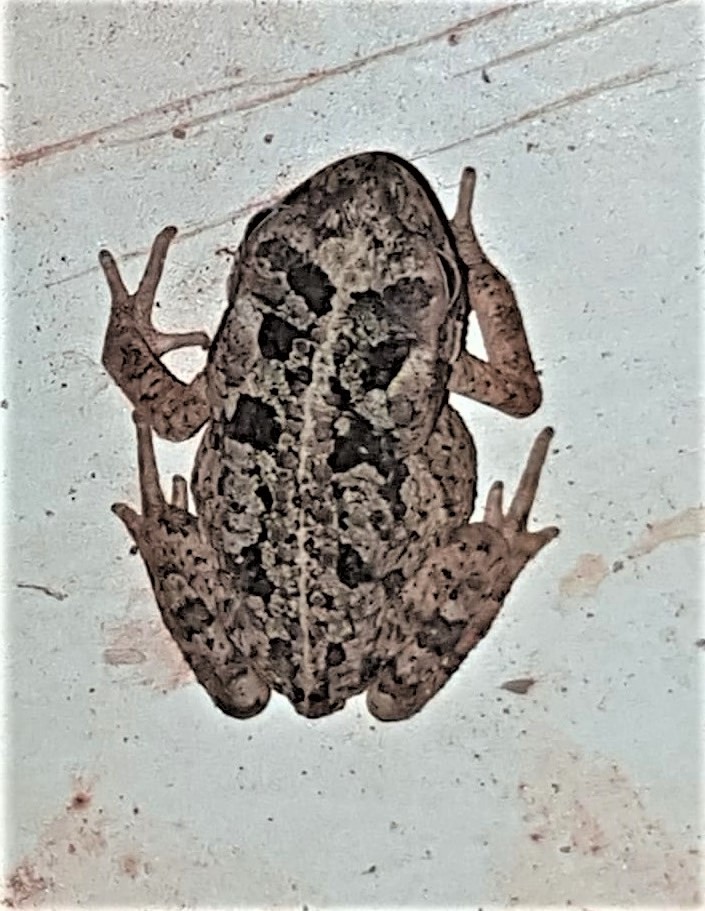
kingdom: Animalia
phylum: Chordata
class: Amphibia
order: Anura
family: Bufonidae
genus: Rhinella
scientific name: Rhinella marina
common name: Cane toad
